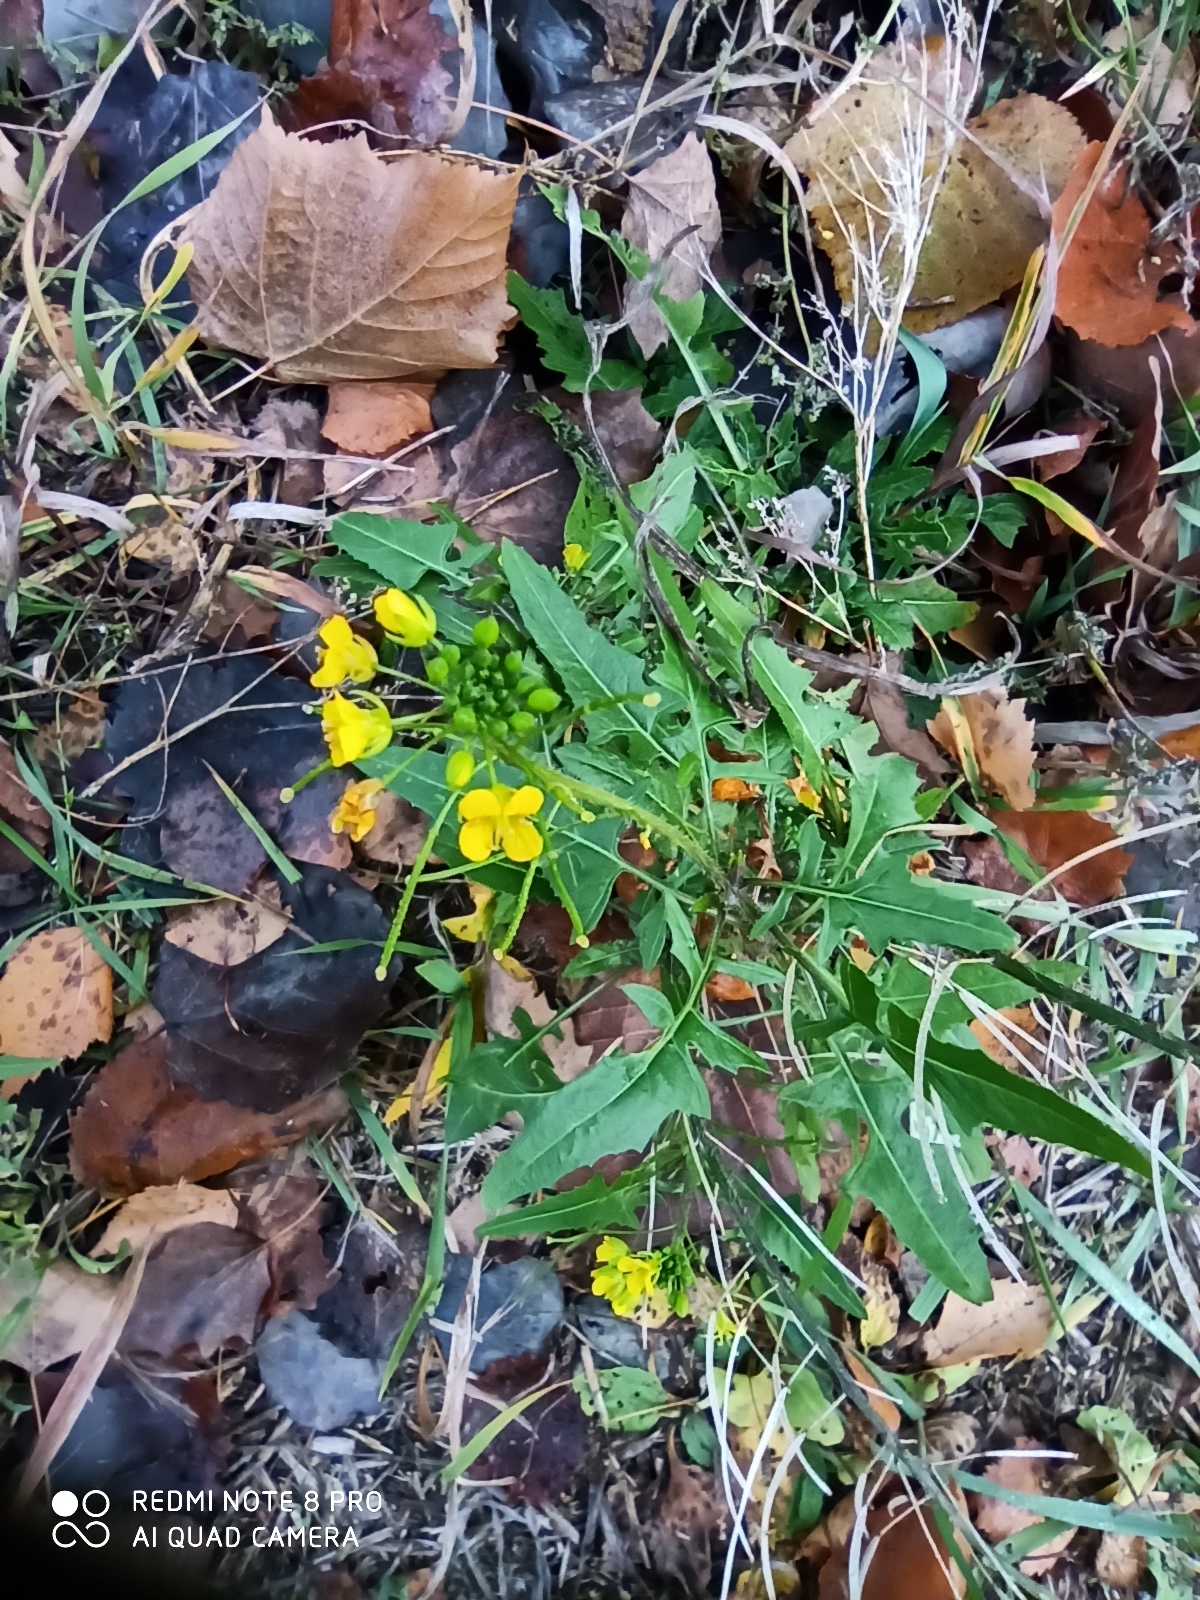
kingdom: Plantae
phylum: Tracheophyta
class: Magnoliopsida
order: Brassicales
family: Brassicaceae
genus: Sisymbrium
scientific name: Sisymbrium loeselii
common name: False london-rocket
